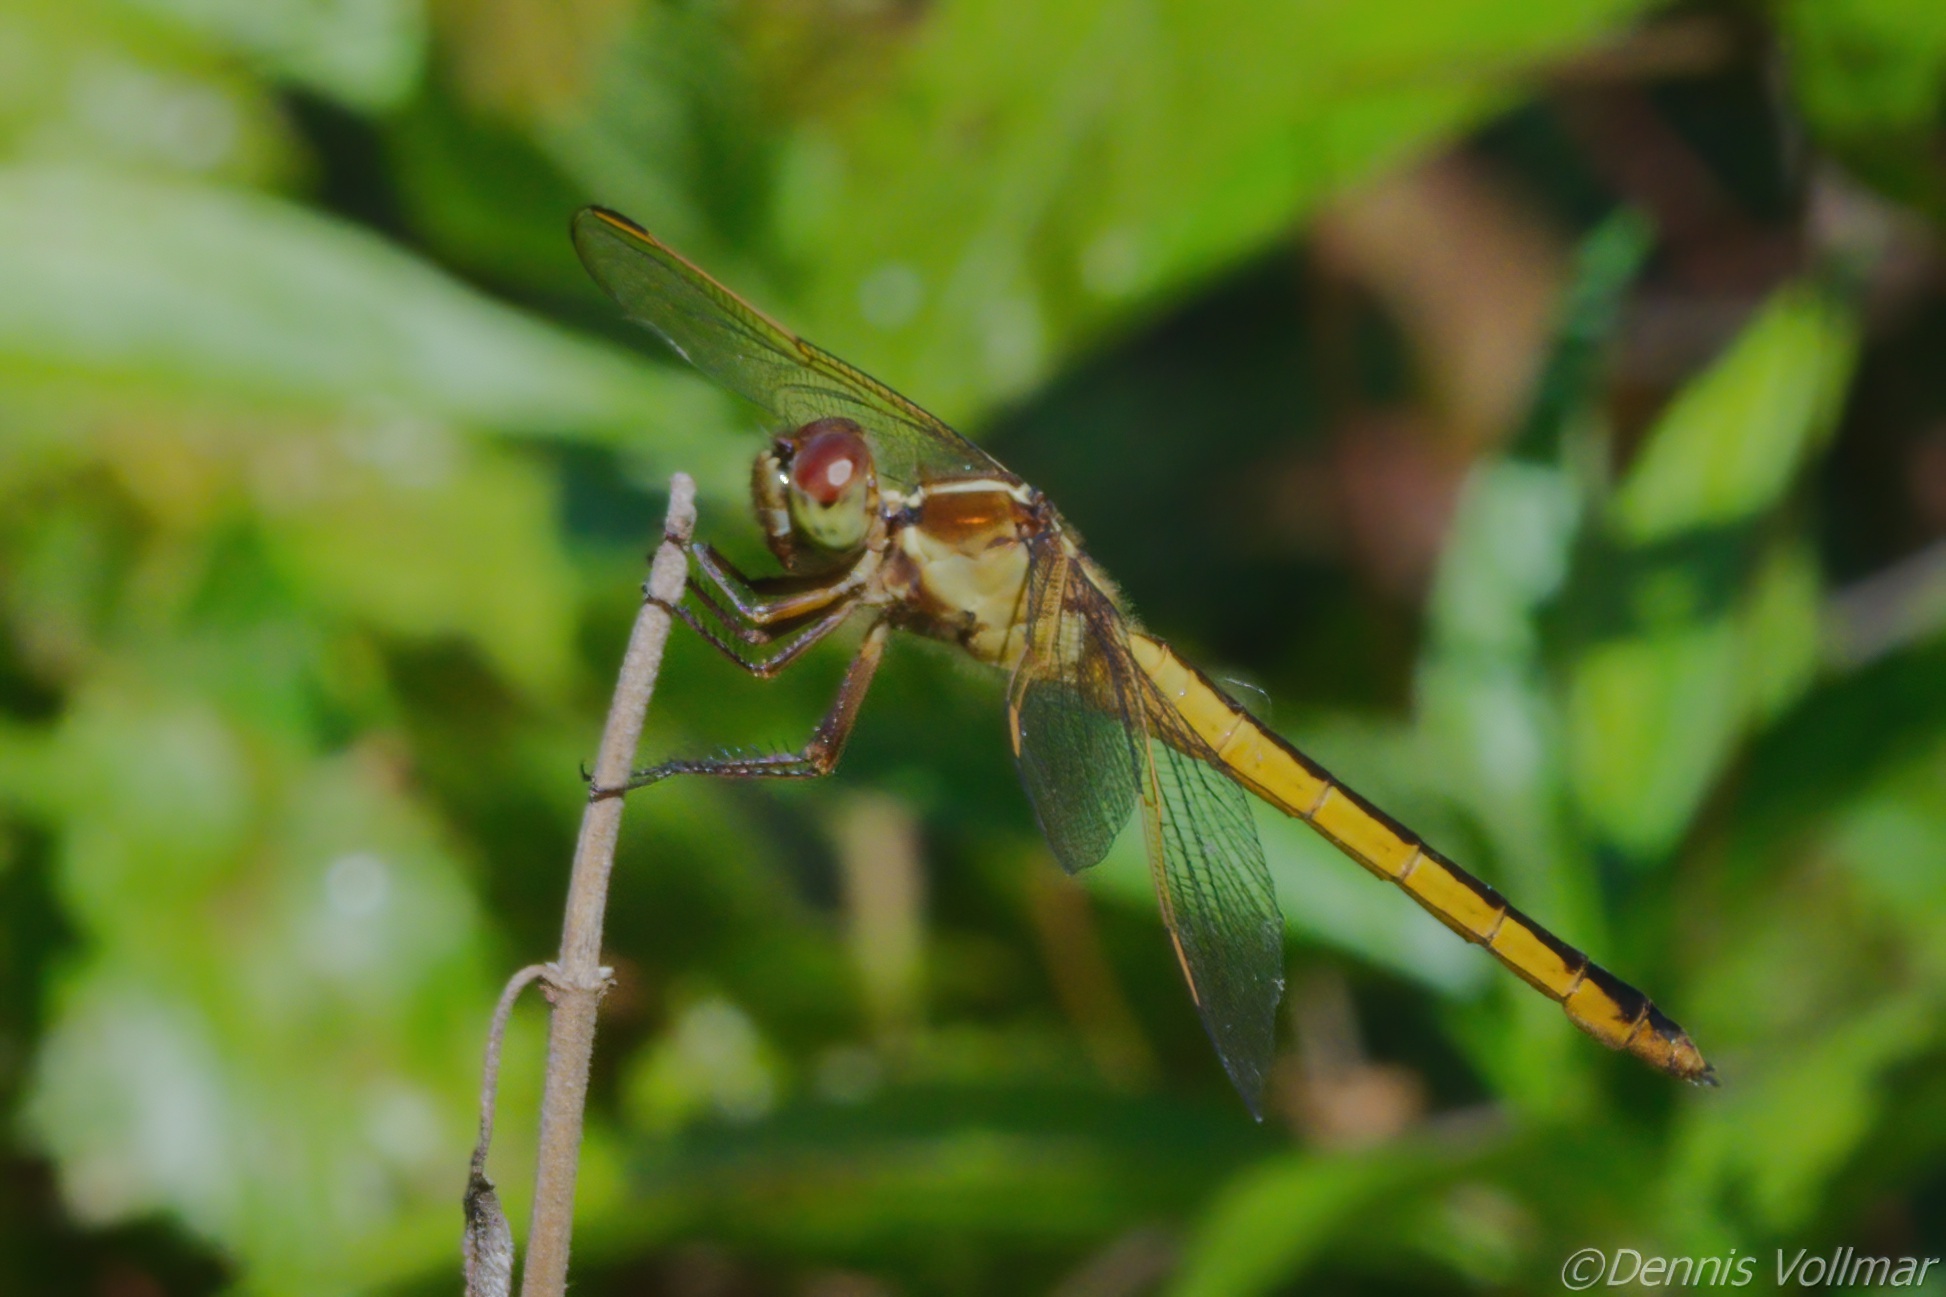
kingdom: Animalia
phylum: Arthropoda
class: Insecta
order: Odonata
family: Libellulidae
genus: Libellula
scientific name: Libellula needhami
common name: Needham's skimmer
